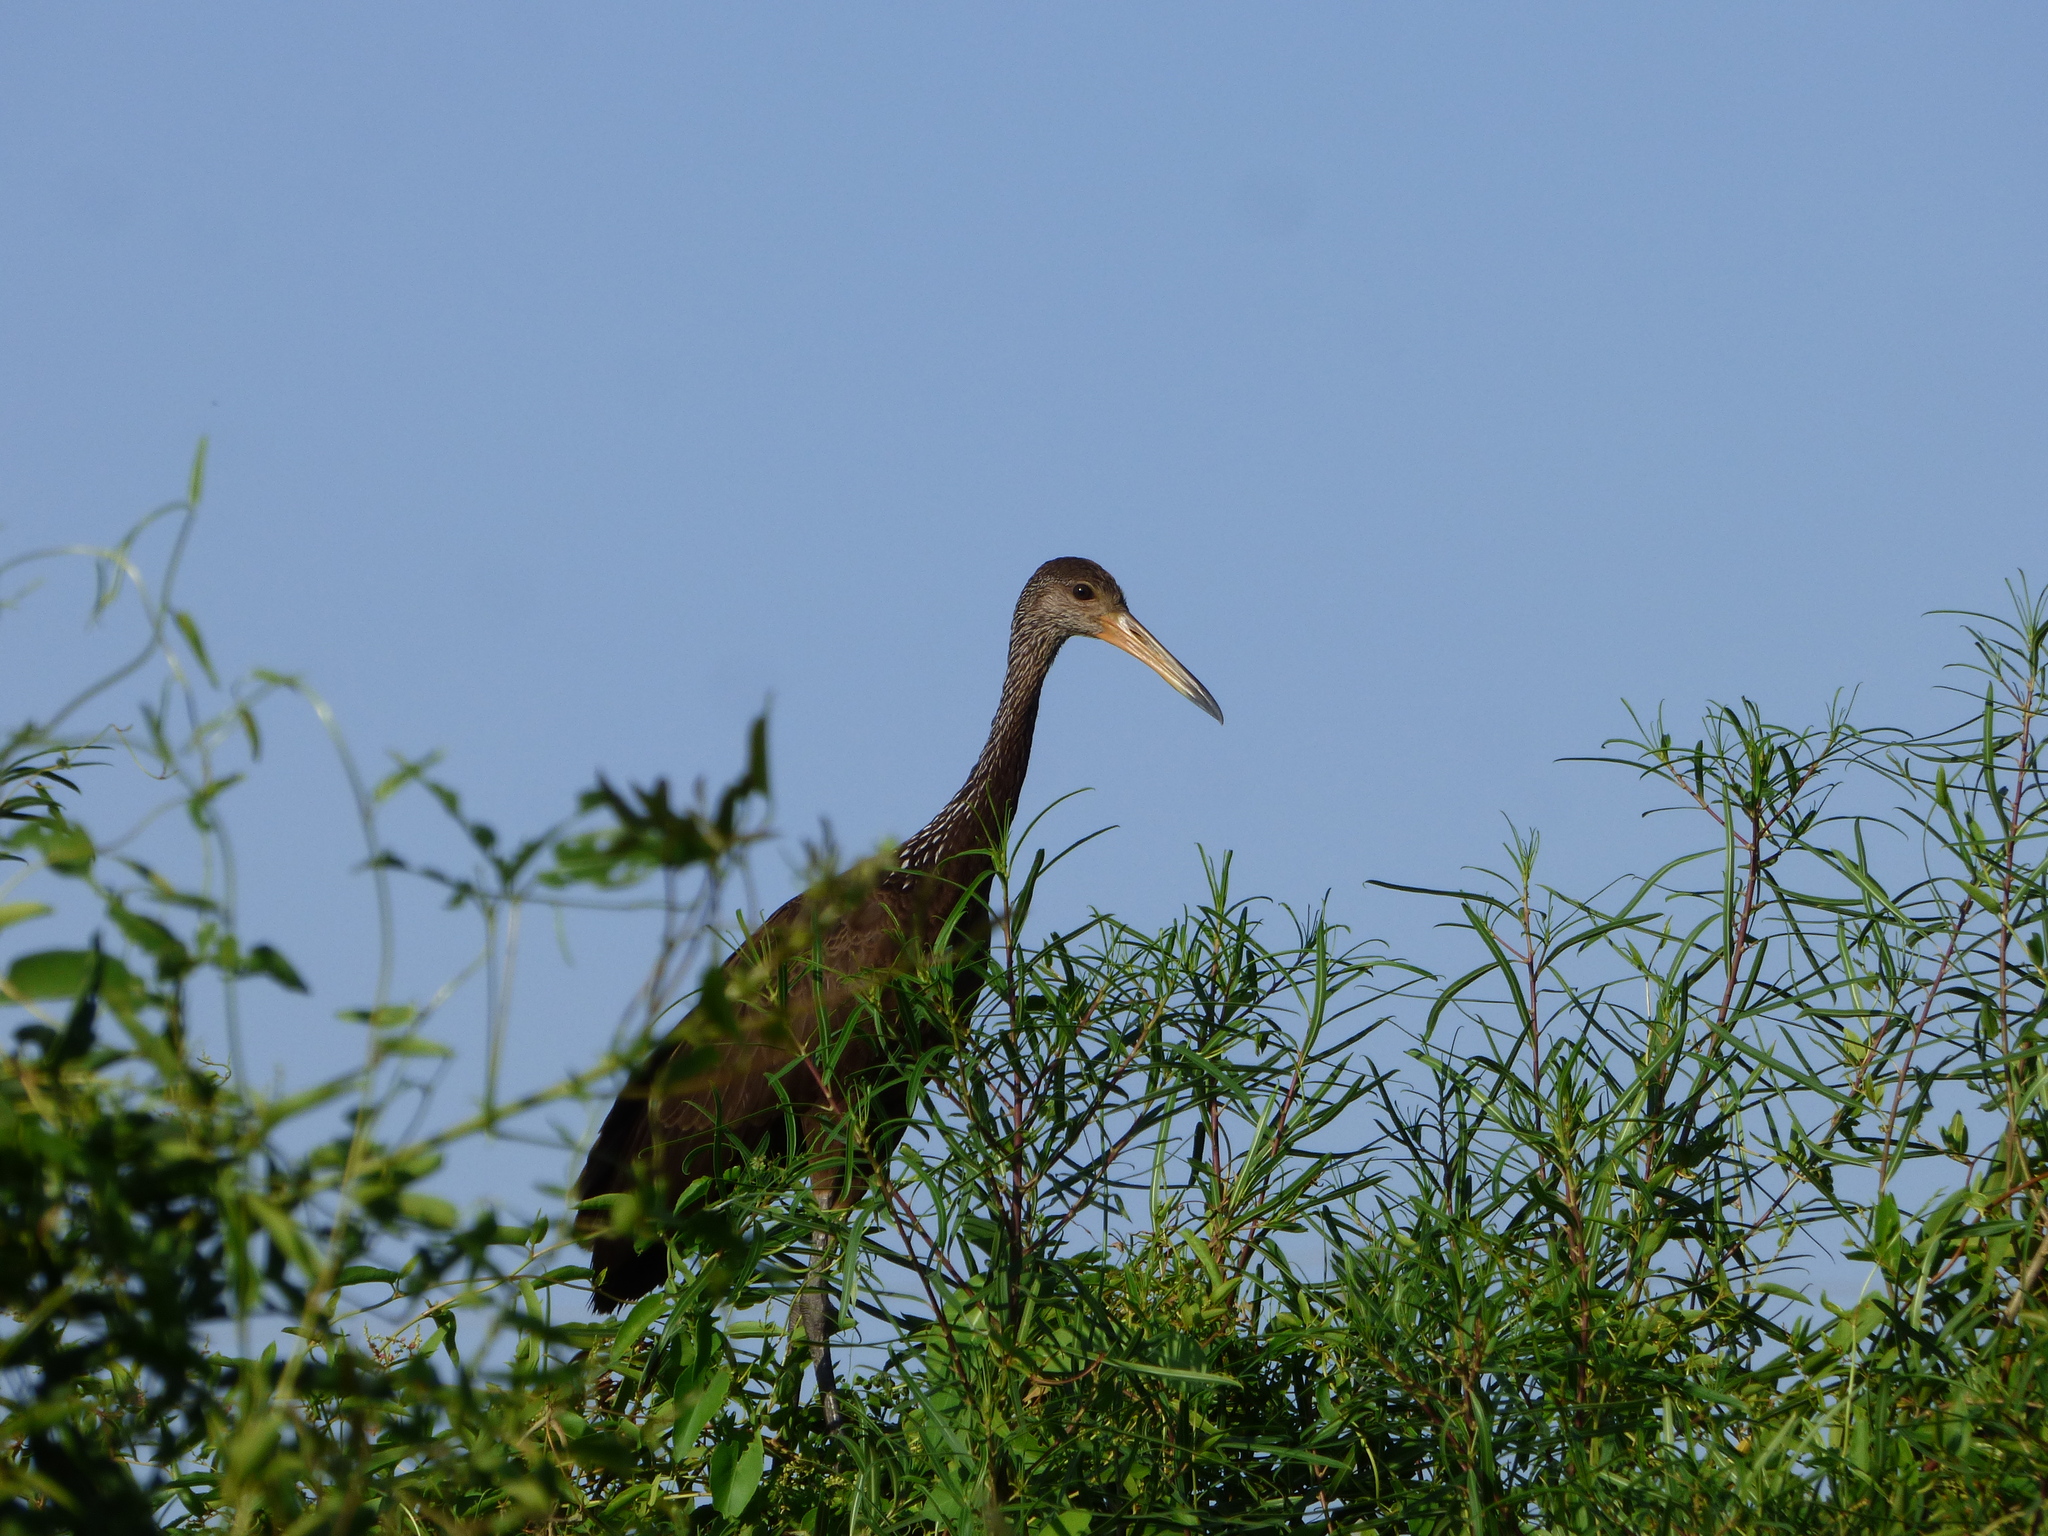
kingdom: Animalia
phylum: Chordata
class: Aves
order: Gruiformes
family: Aramidae
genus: Aramus
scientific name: Aramus guarauna
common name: Limpkin
